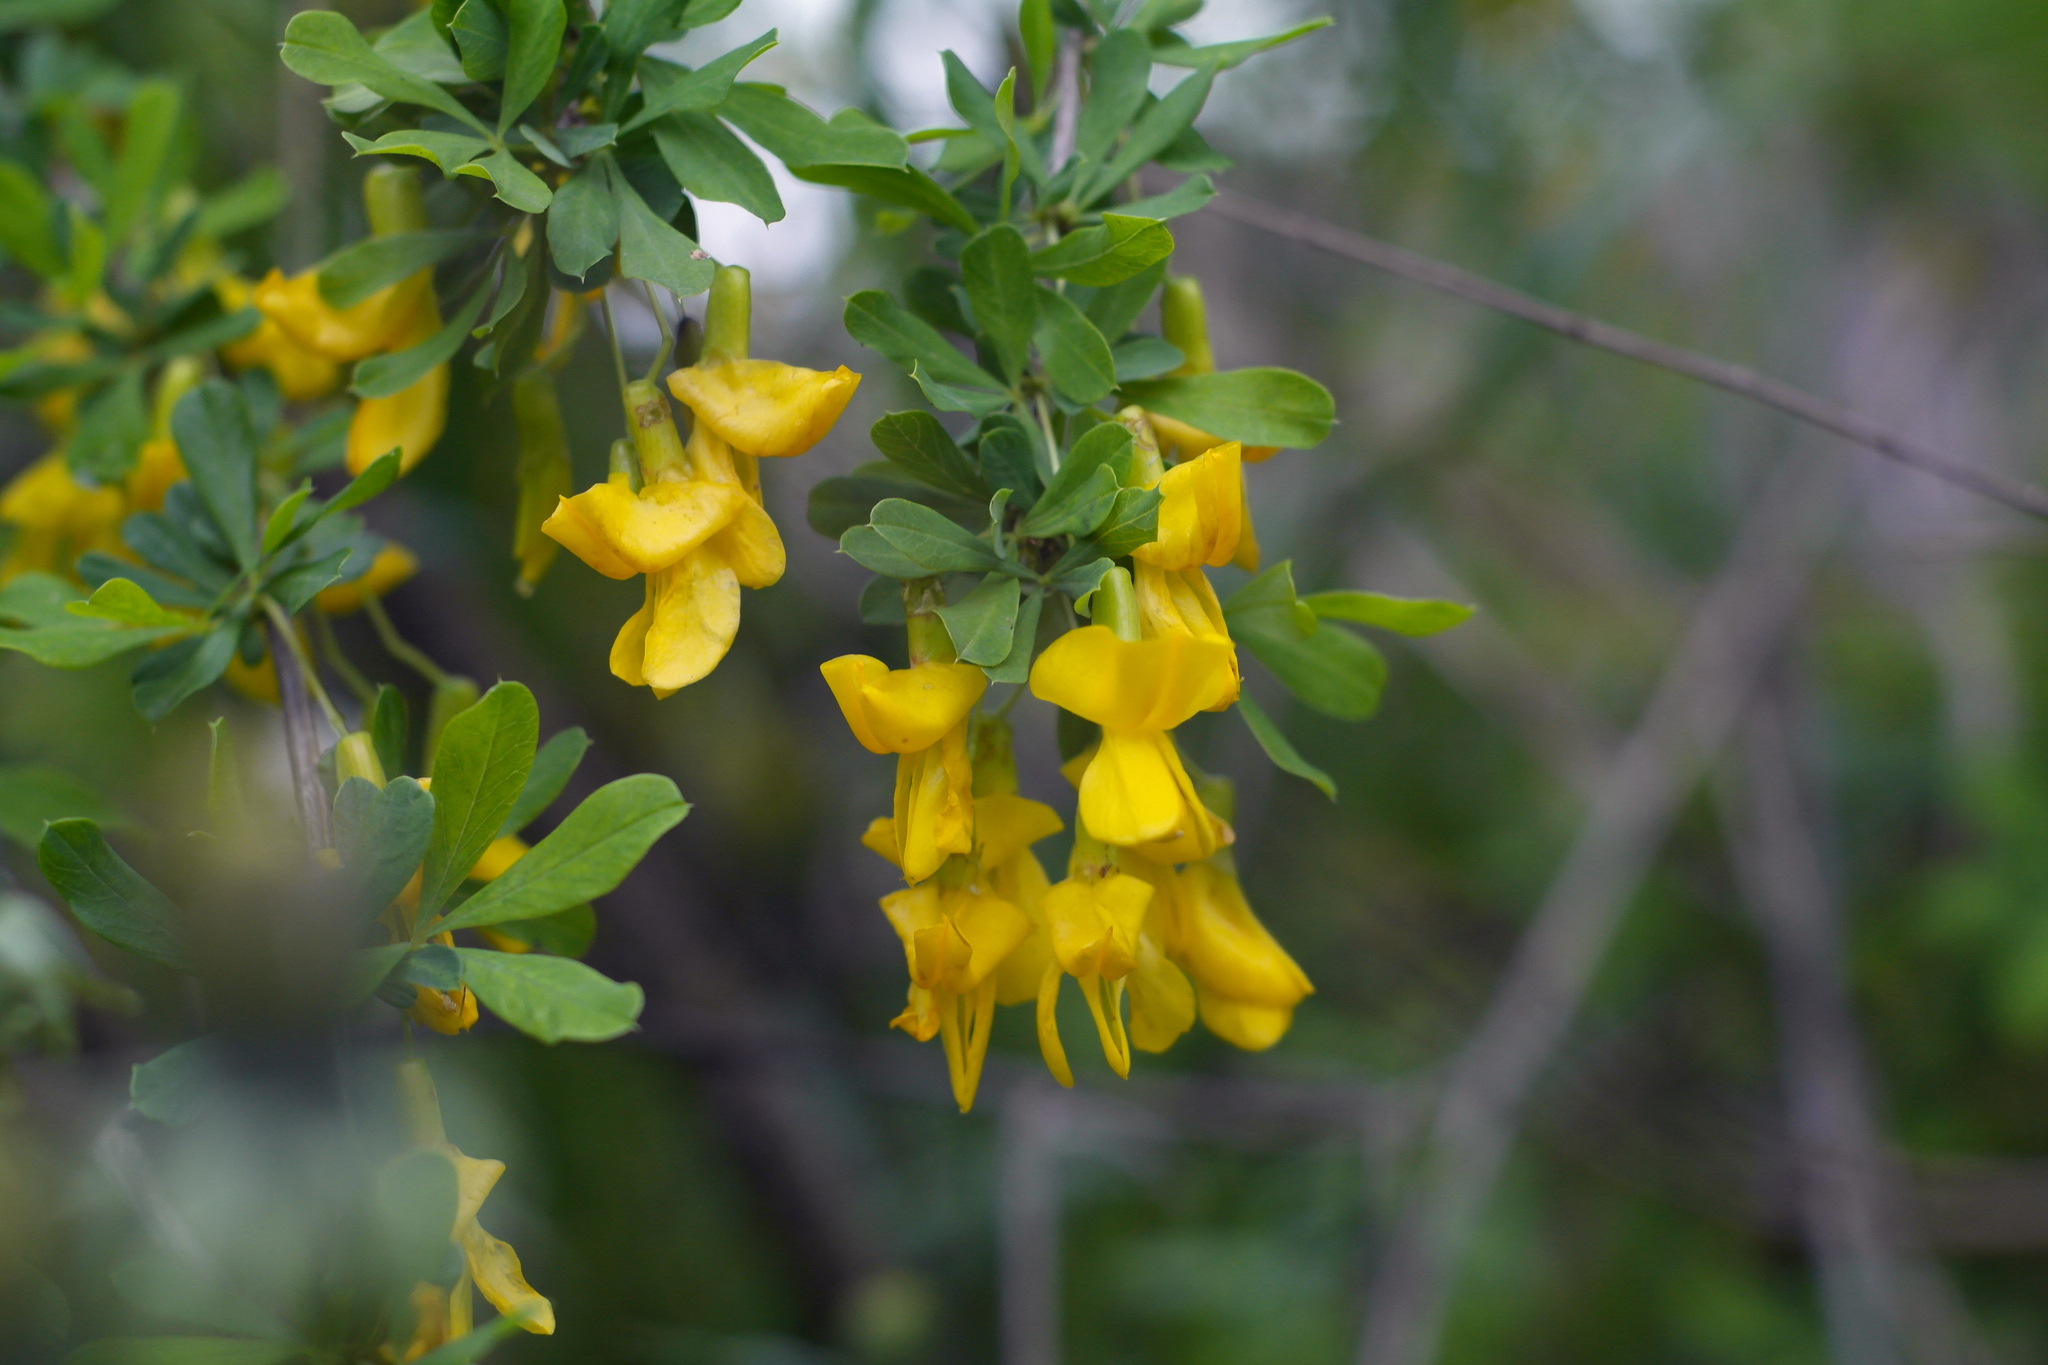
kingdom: Plantae
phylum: Tracheophyta
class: Magnoliopsida
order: Fabales
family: Fabaceae
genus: Caragana
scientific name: Caragana frutex
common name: Russian peashrub
